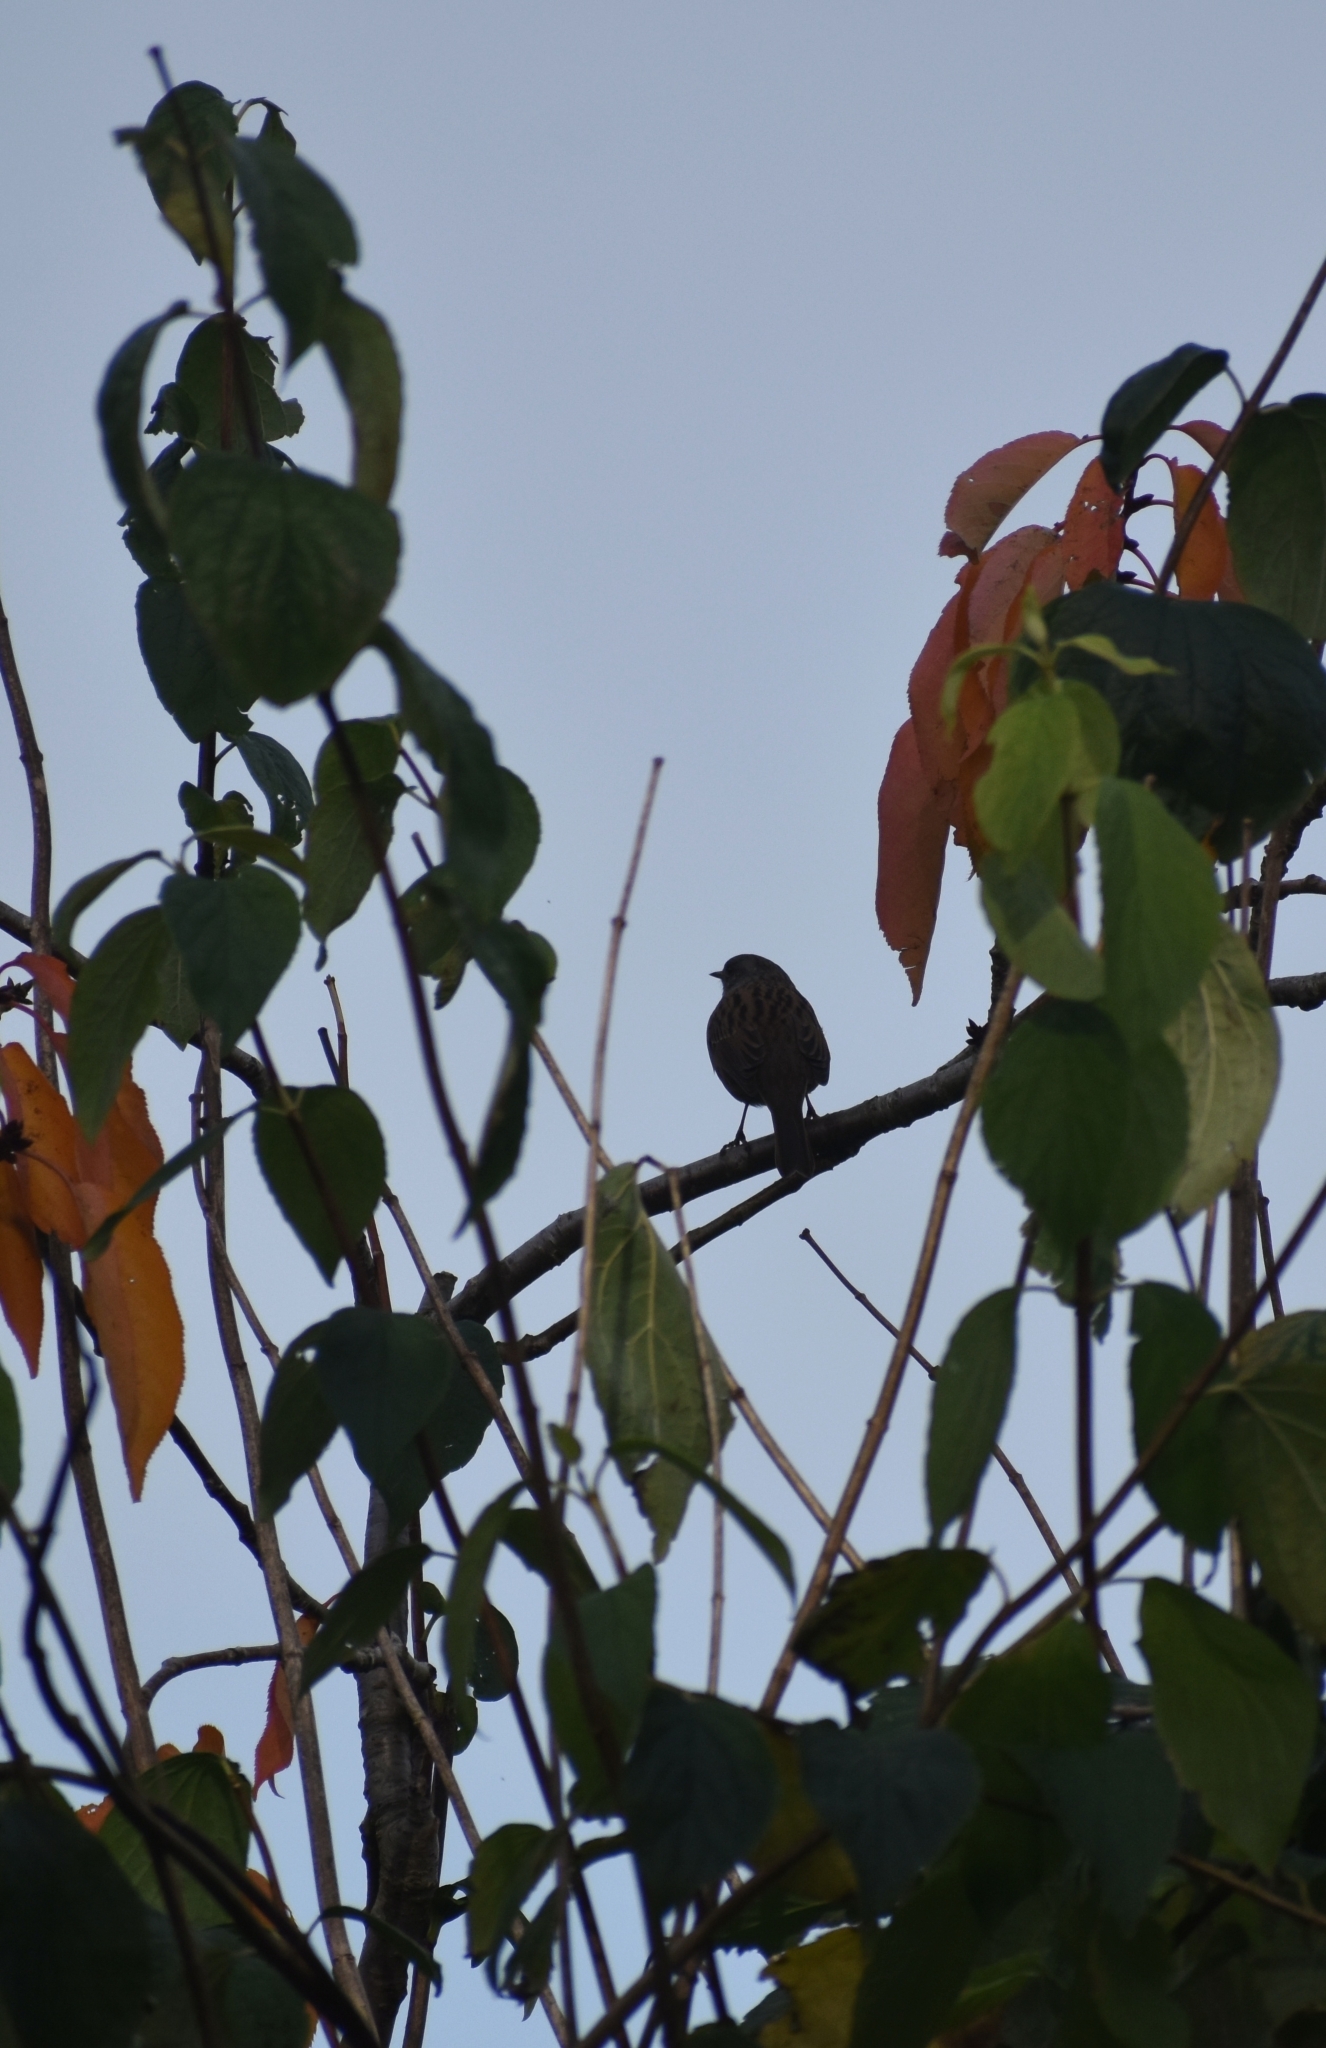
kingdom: Animalia
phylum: Chordata
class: Aves
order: Passeriformes
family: Prunellidae
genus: Prunella
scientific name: Prunella modularis
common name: Dunnock
